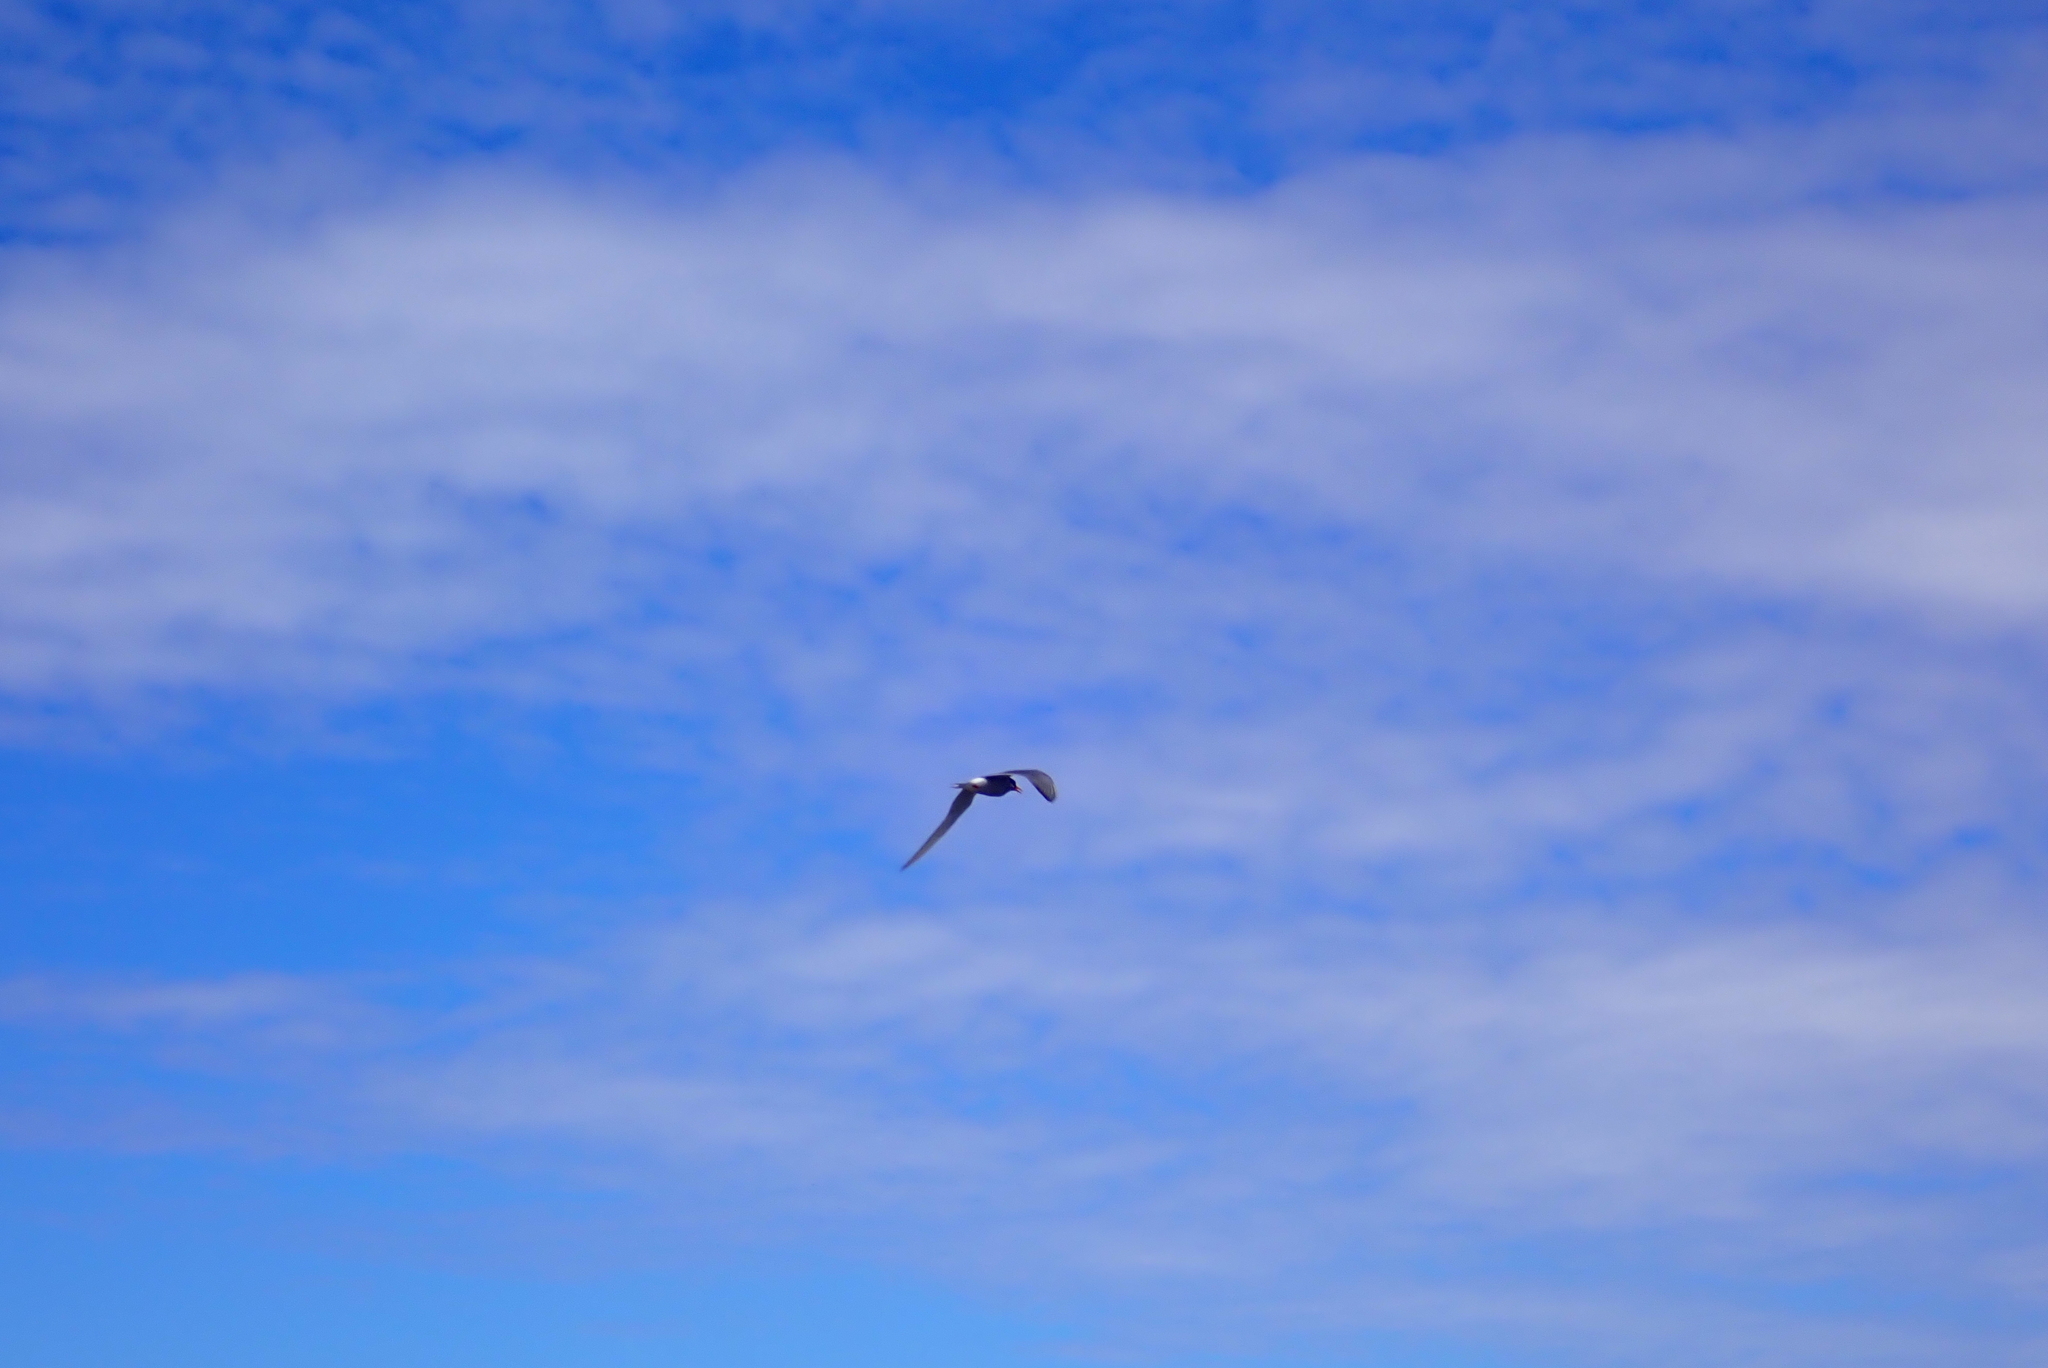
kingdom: Animalia
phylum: Chordata
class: Aves
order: Charadriiformes
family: Laridae
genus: Chlidonias
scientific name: Chlidonias albostriatus
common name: Black-fronted tern
